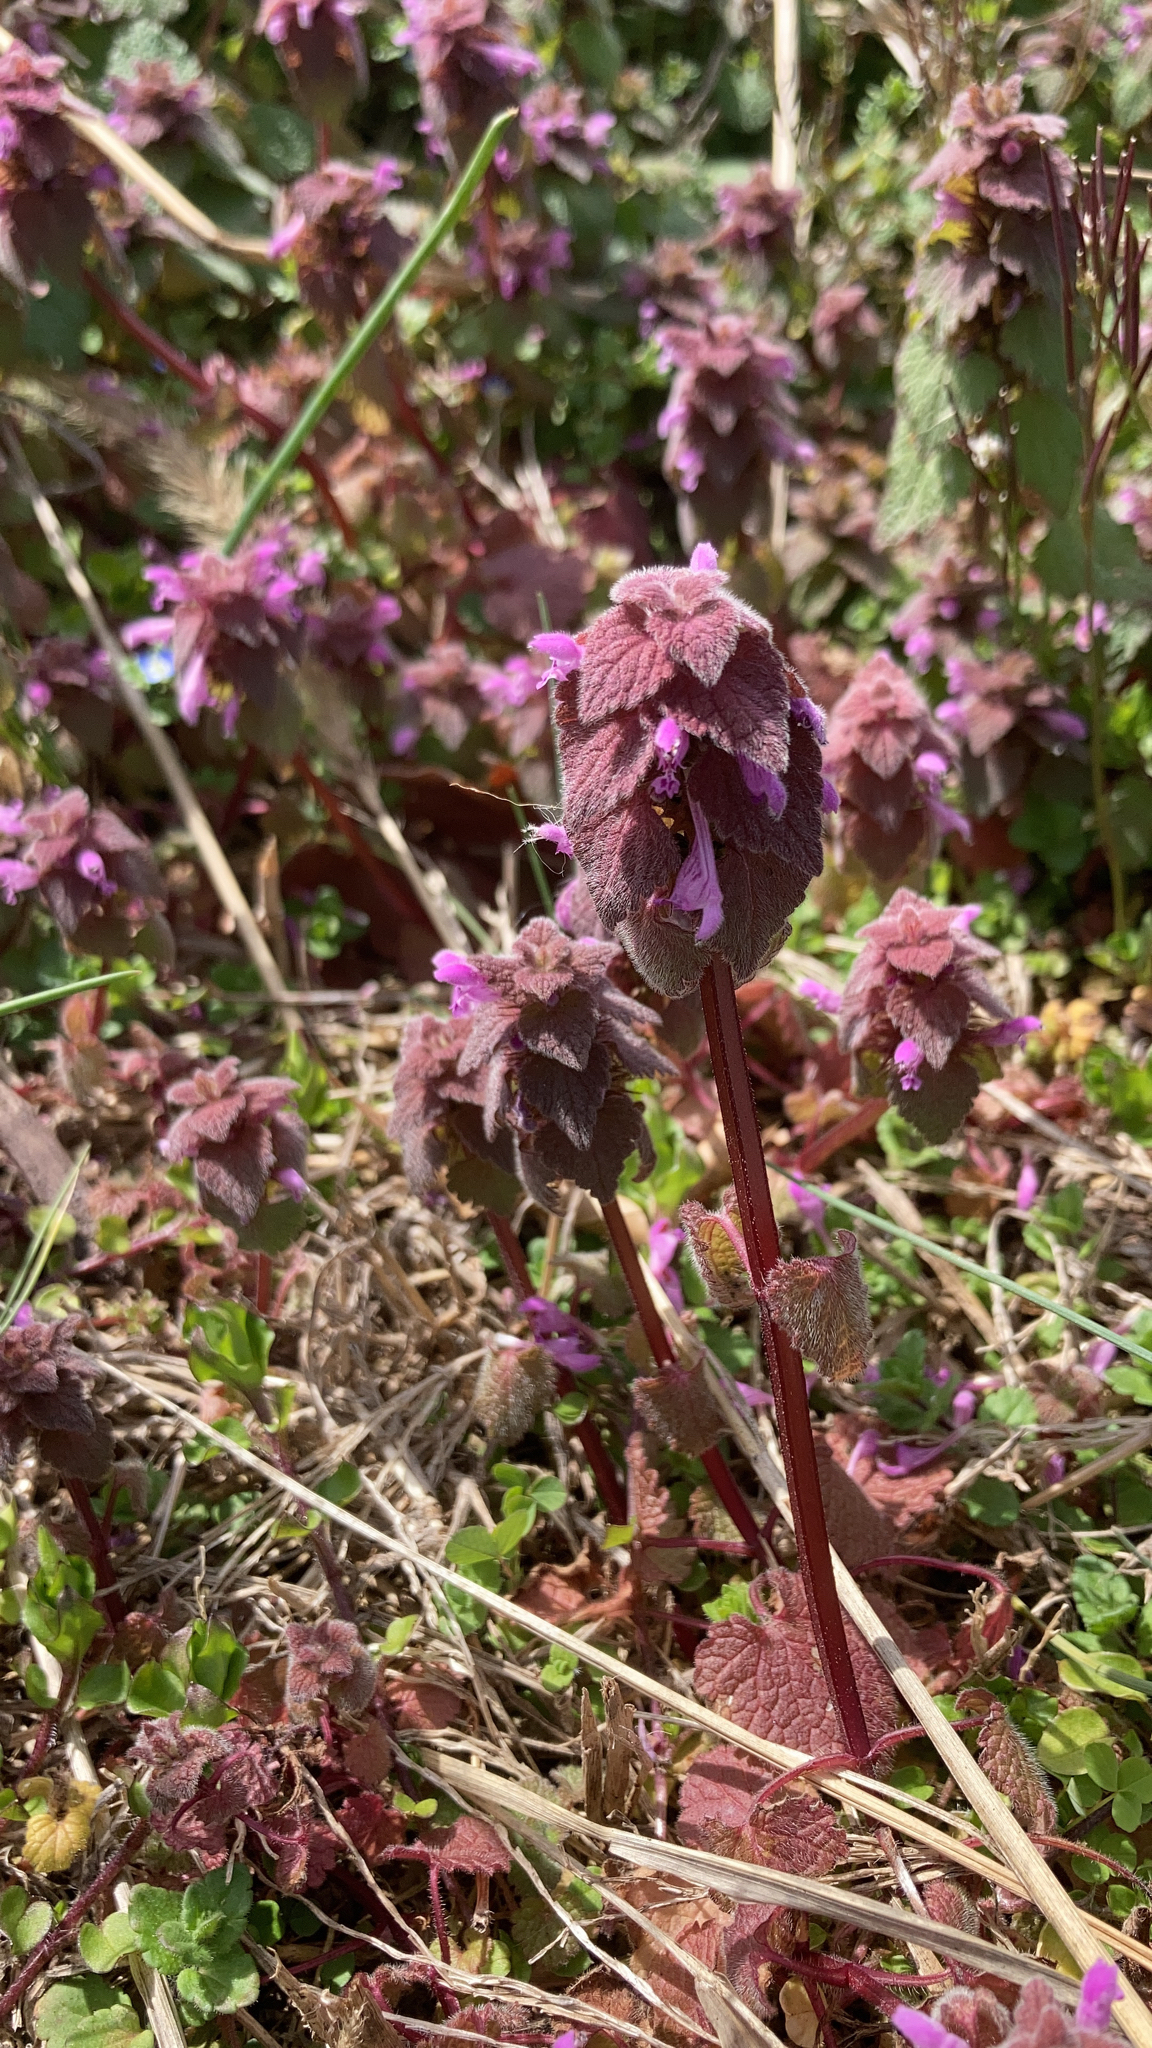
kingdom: Plantae
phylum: Tracheophyta
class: Magnoliopsida
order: Lamiales
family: Lamiaceae
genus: Lamium
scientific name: Lamium purpureum
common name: Red dead-nettle
